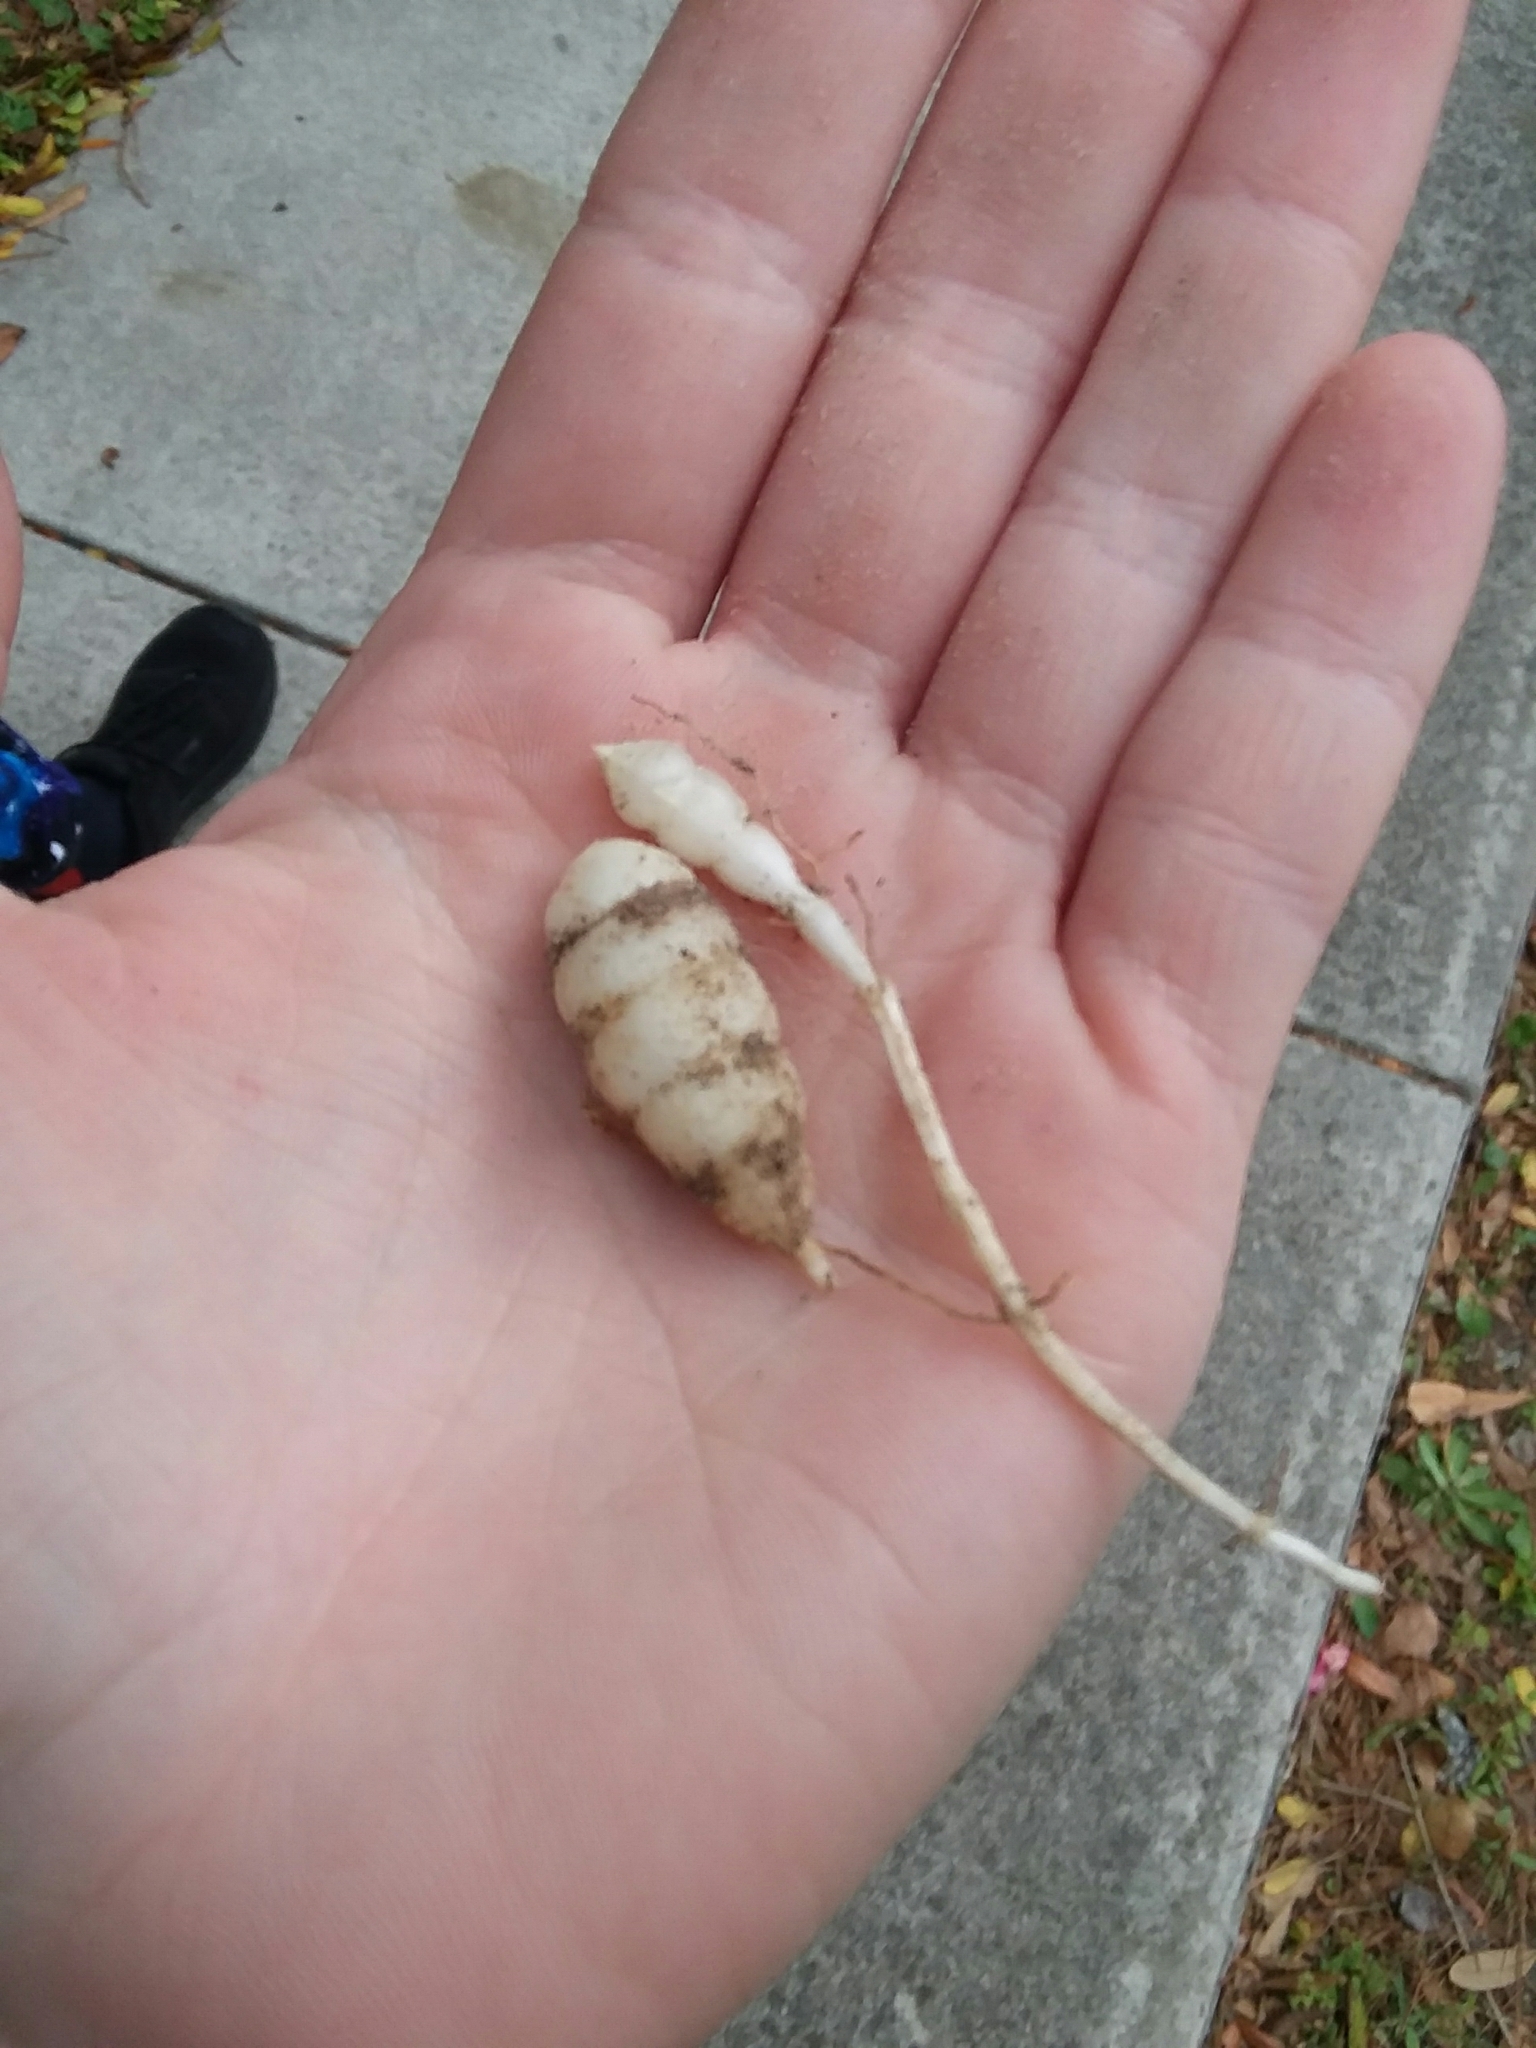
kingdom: Plantae
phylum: Tracheophyta
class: Magnoliopsida
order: Lamiales
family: Lamiaceae
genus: Stachys
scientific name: Stachys floridana
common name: Florida betony
